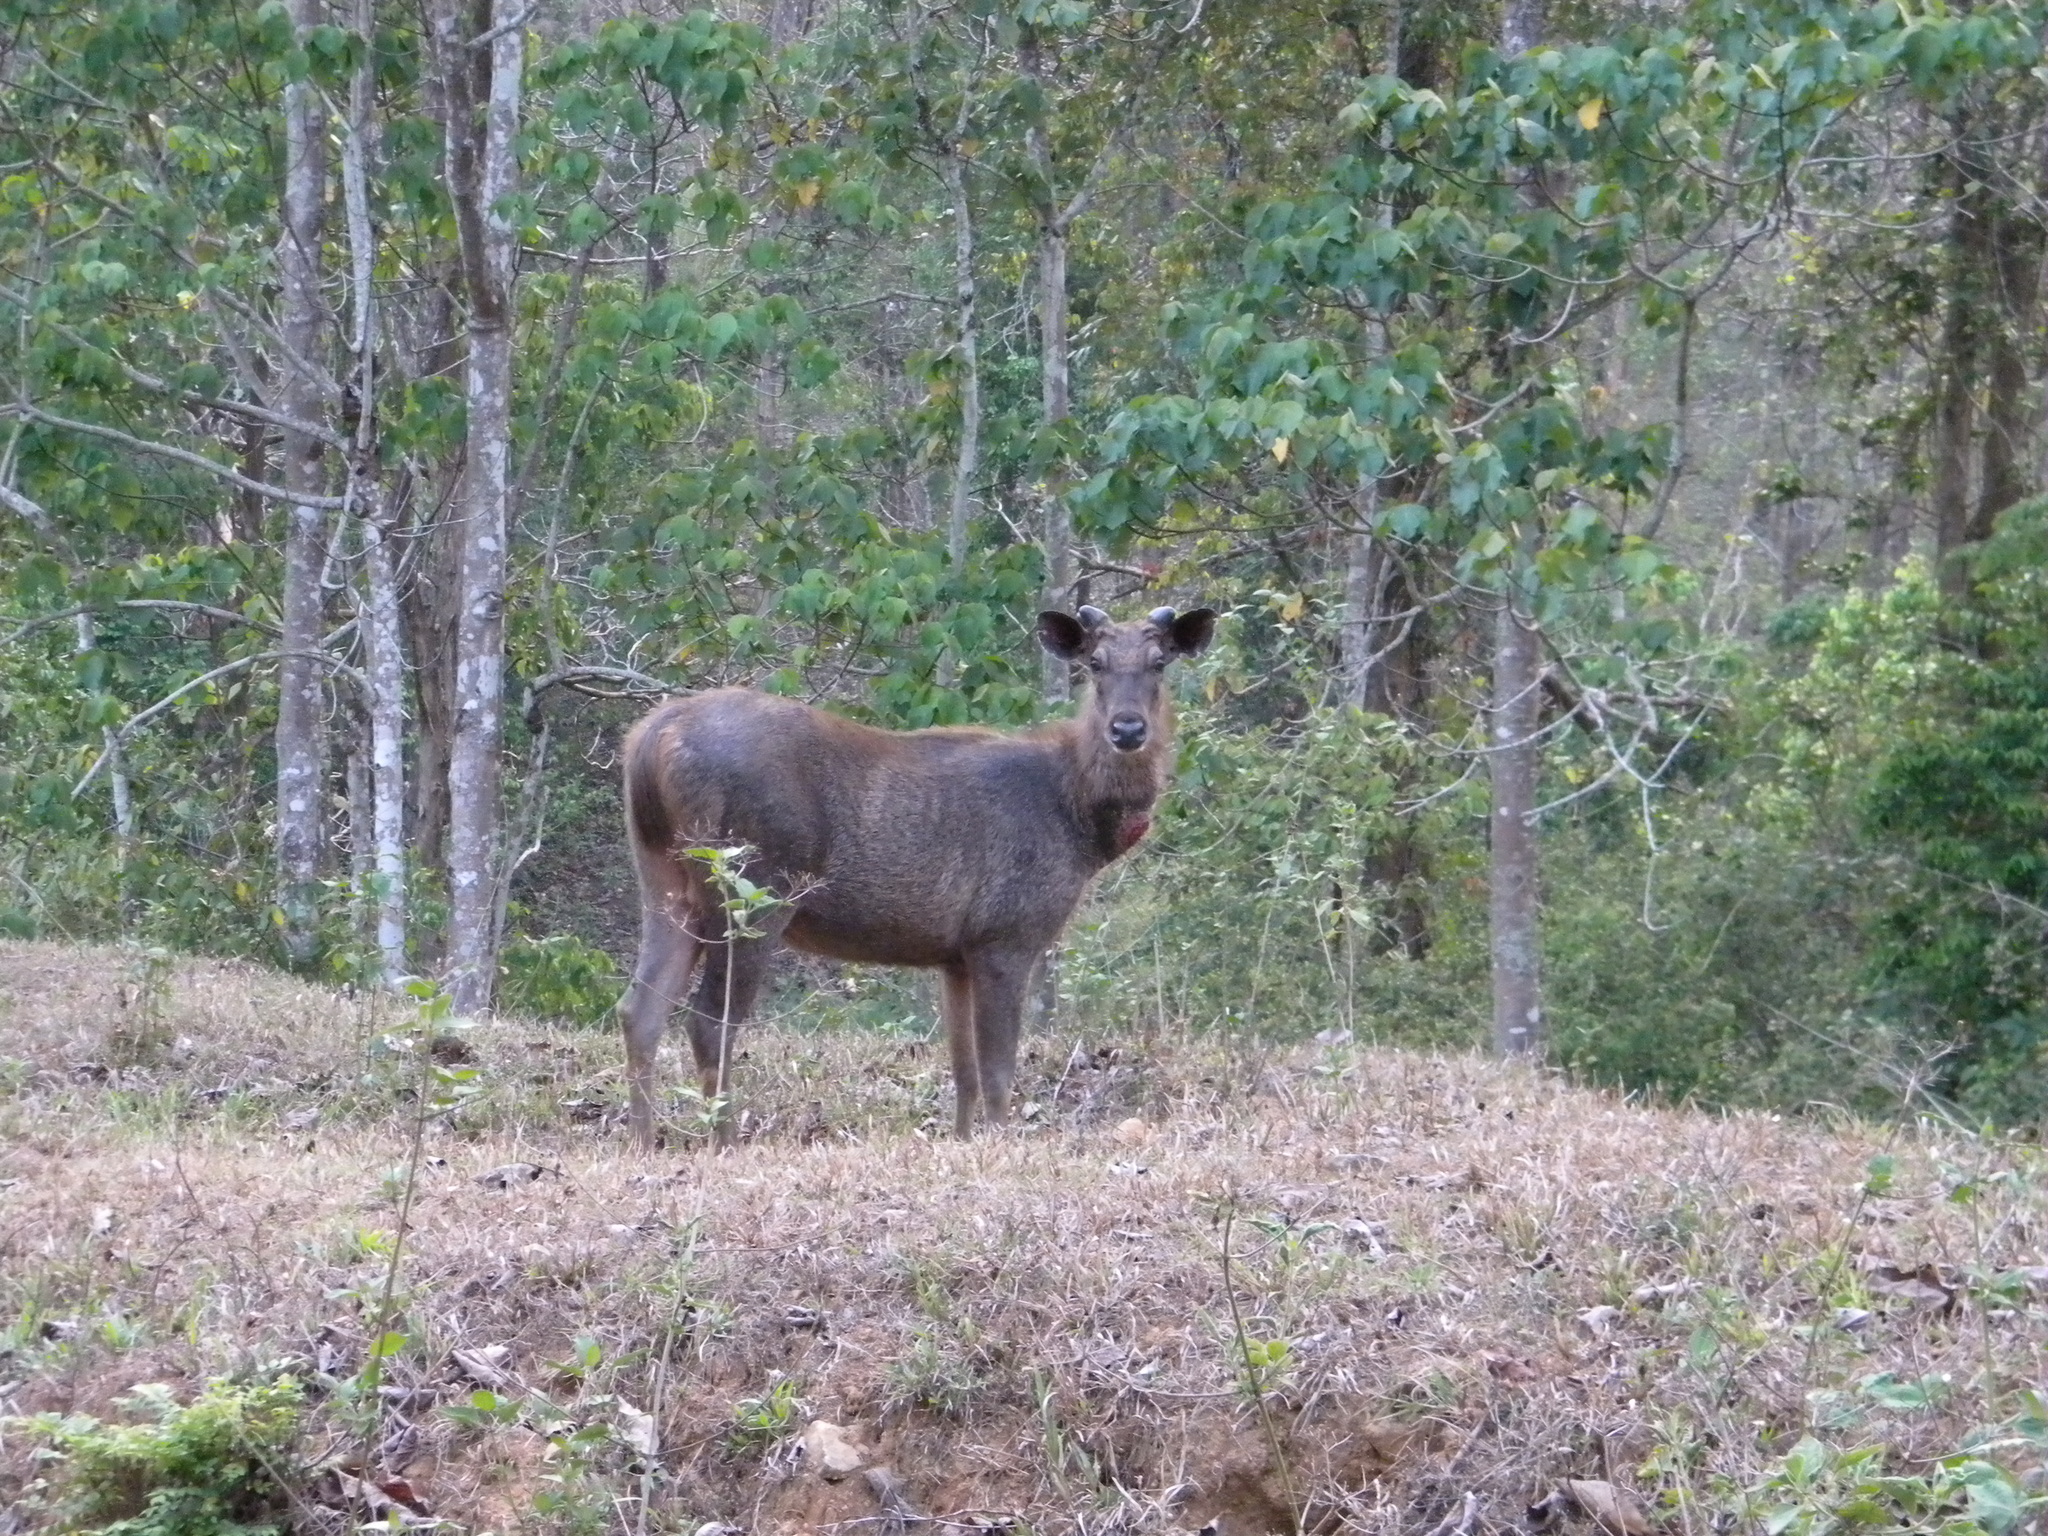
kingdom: Animalia
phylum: Chordata
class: Mammalia
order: Artiodactyla
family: Cervidae
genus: Rusa
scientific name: Rusa unicolor
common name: Sambar
